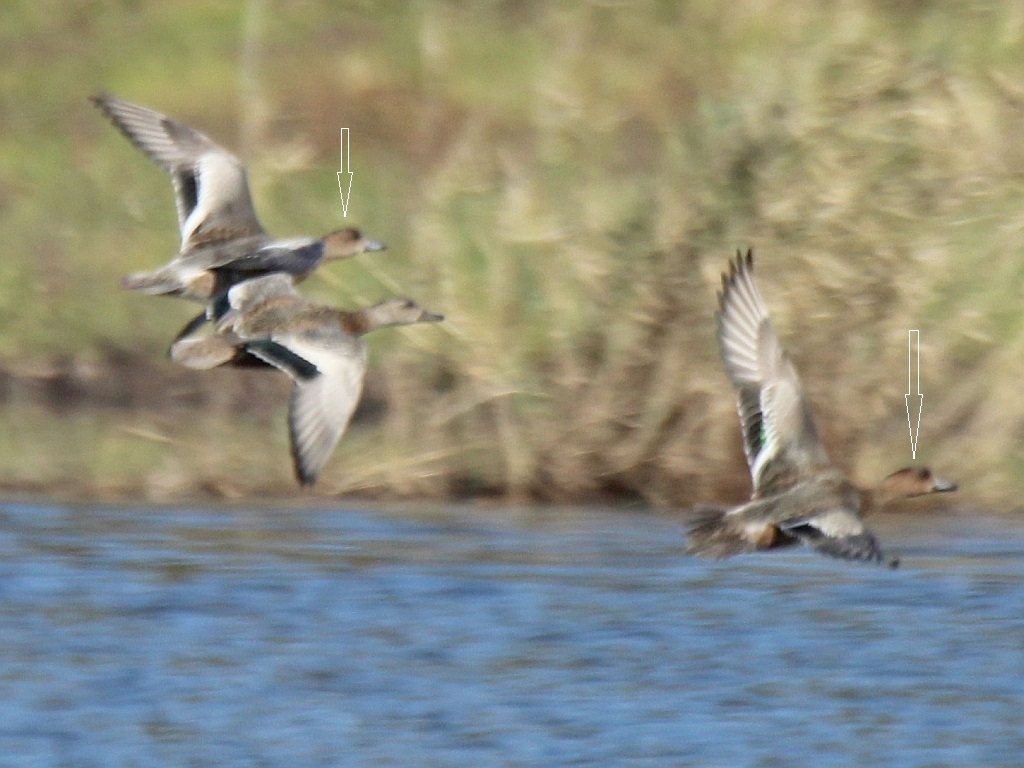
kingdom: Animalia
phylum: Chordata
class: Aves
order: Anseriformes
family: Anatidae
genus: Mareca
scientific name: Mareca penelope
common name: Eurasian wigeon
